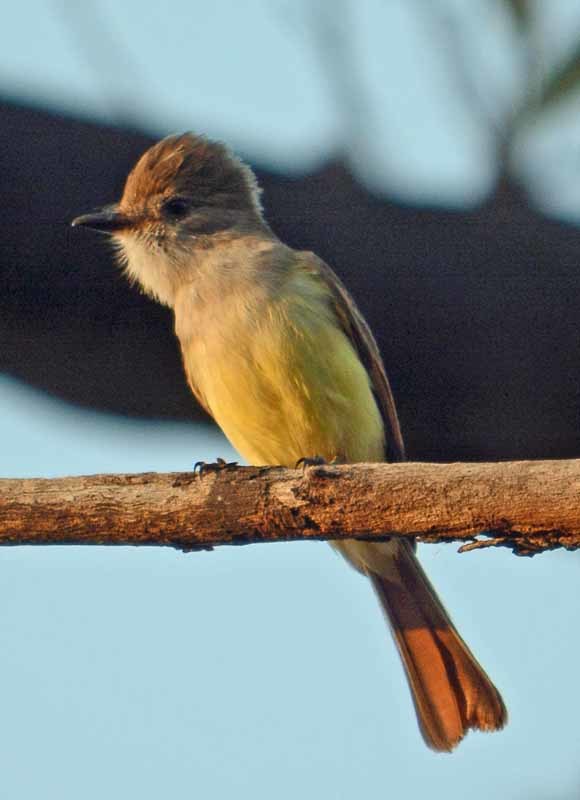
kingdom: Animalia
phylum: Chordata
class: Aves
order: Passeriformes
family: Tyrannidae
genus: Myiarchus
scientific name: Myiarchus nuttingi
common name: Nutting's flycatcher
